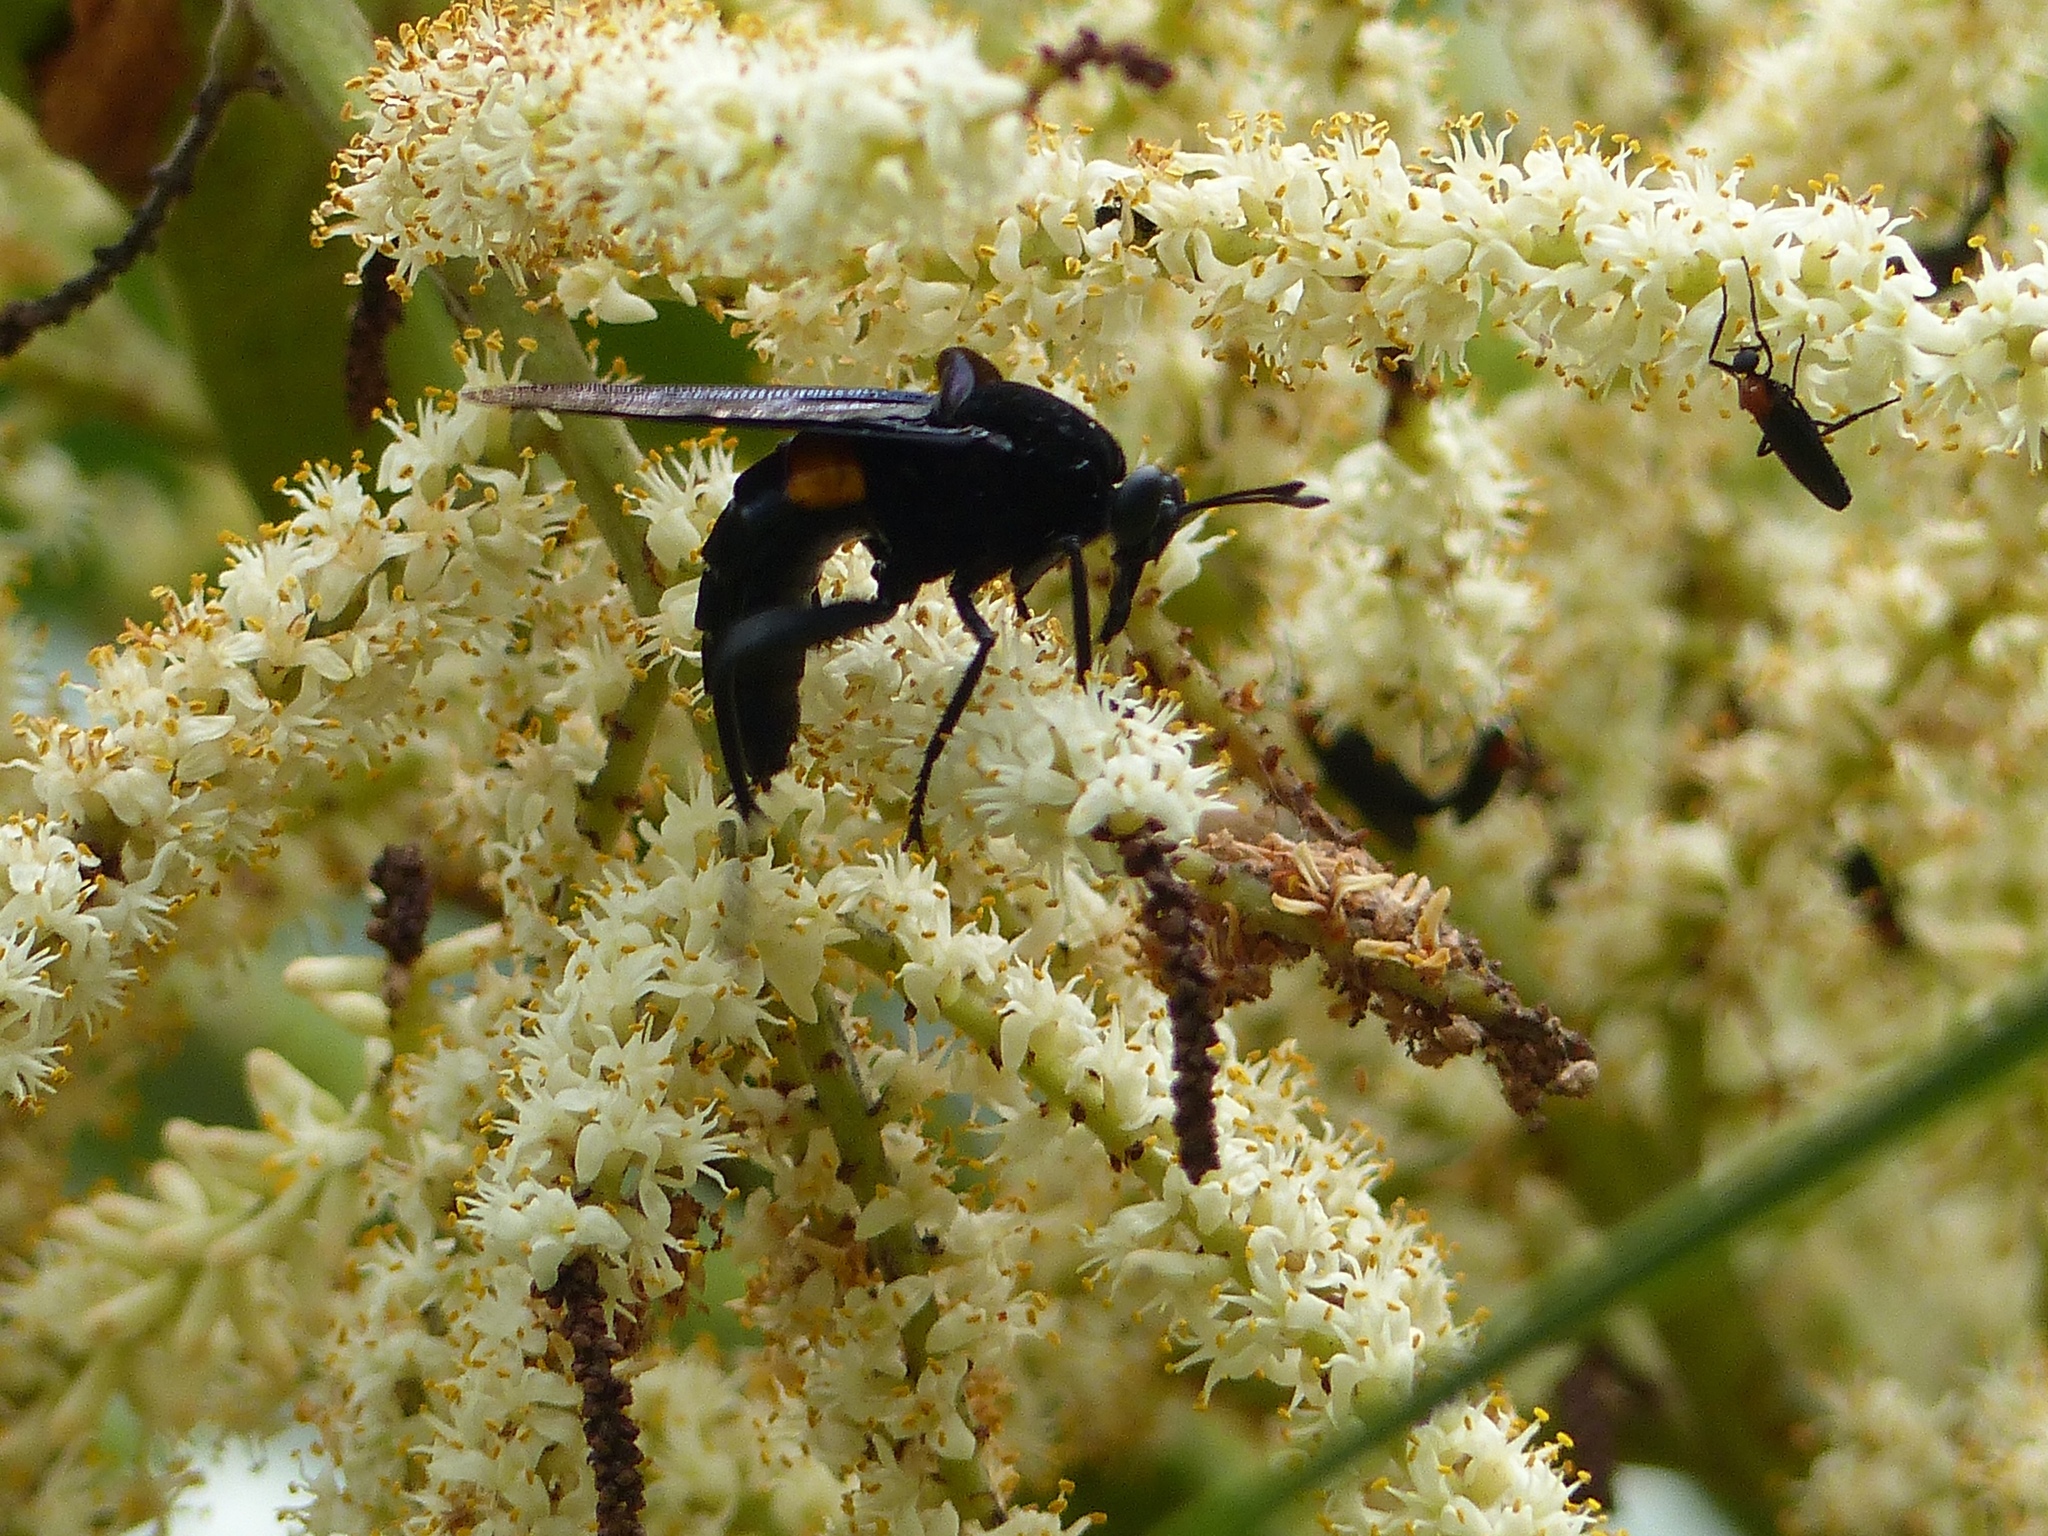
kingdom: Animalia
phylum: Arthropoda
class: Insecta
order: Diptera
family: Mydidae
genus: Mydas
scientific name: Mydas clavatus
